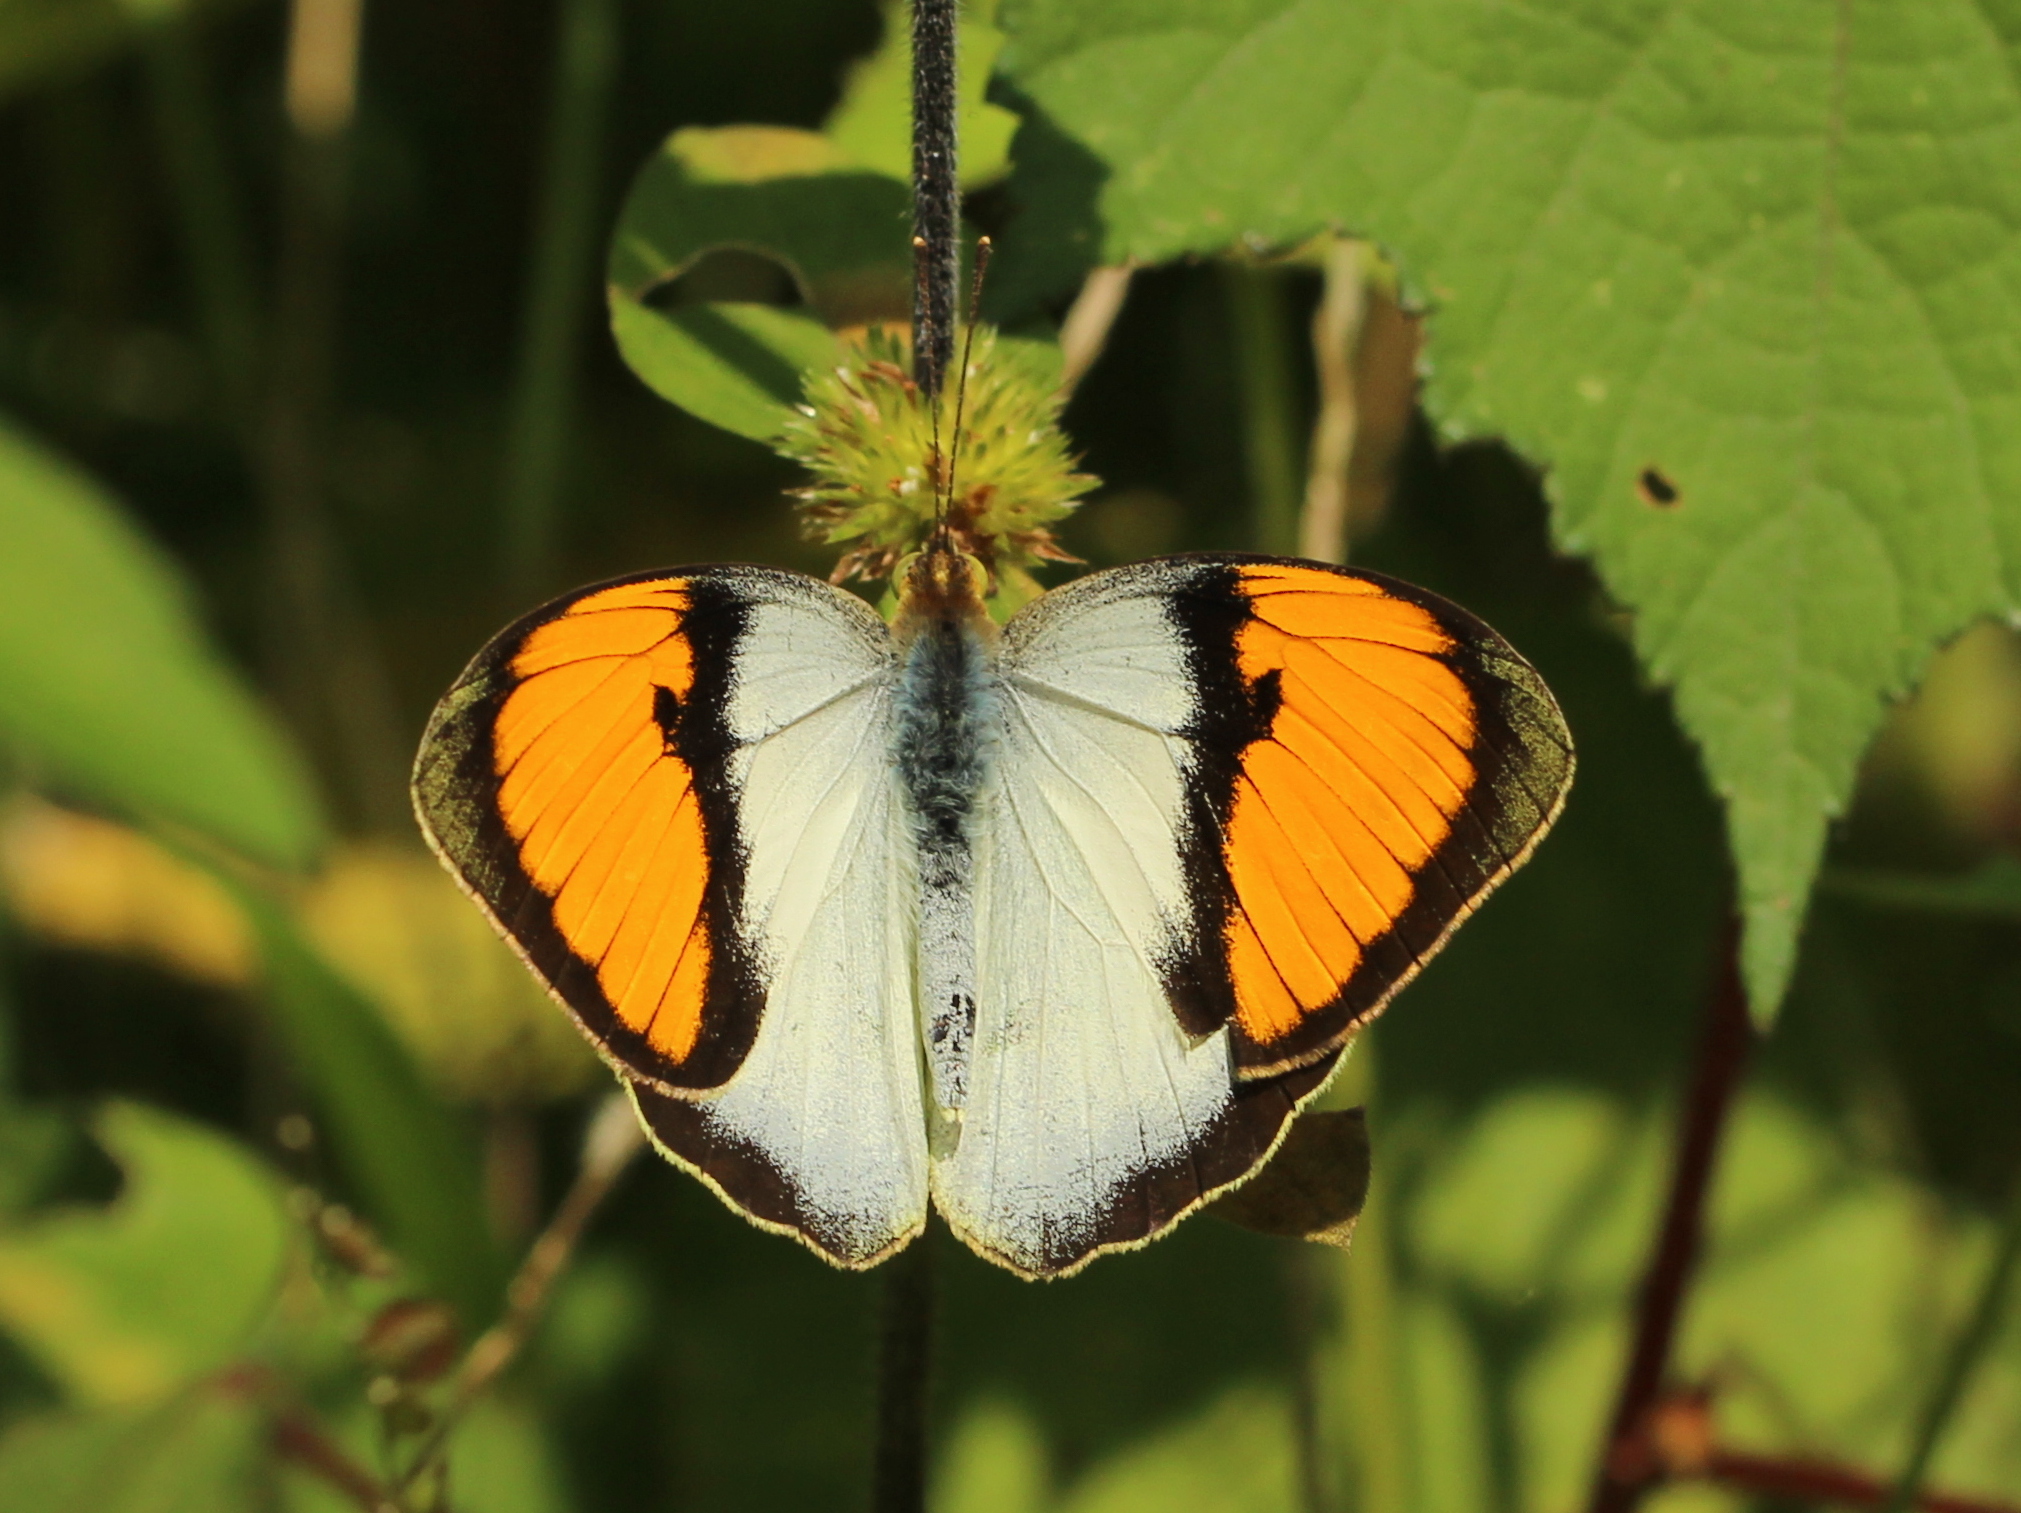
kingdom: Animalia
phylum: Arthropoda
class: Insecta
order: Lepidoptera
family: Pieridae
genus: Ixias
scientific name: Ixias marianne
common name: White orange tip
